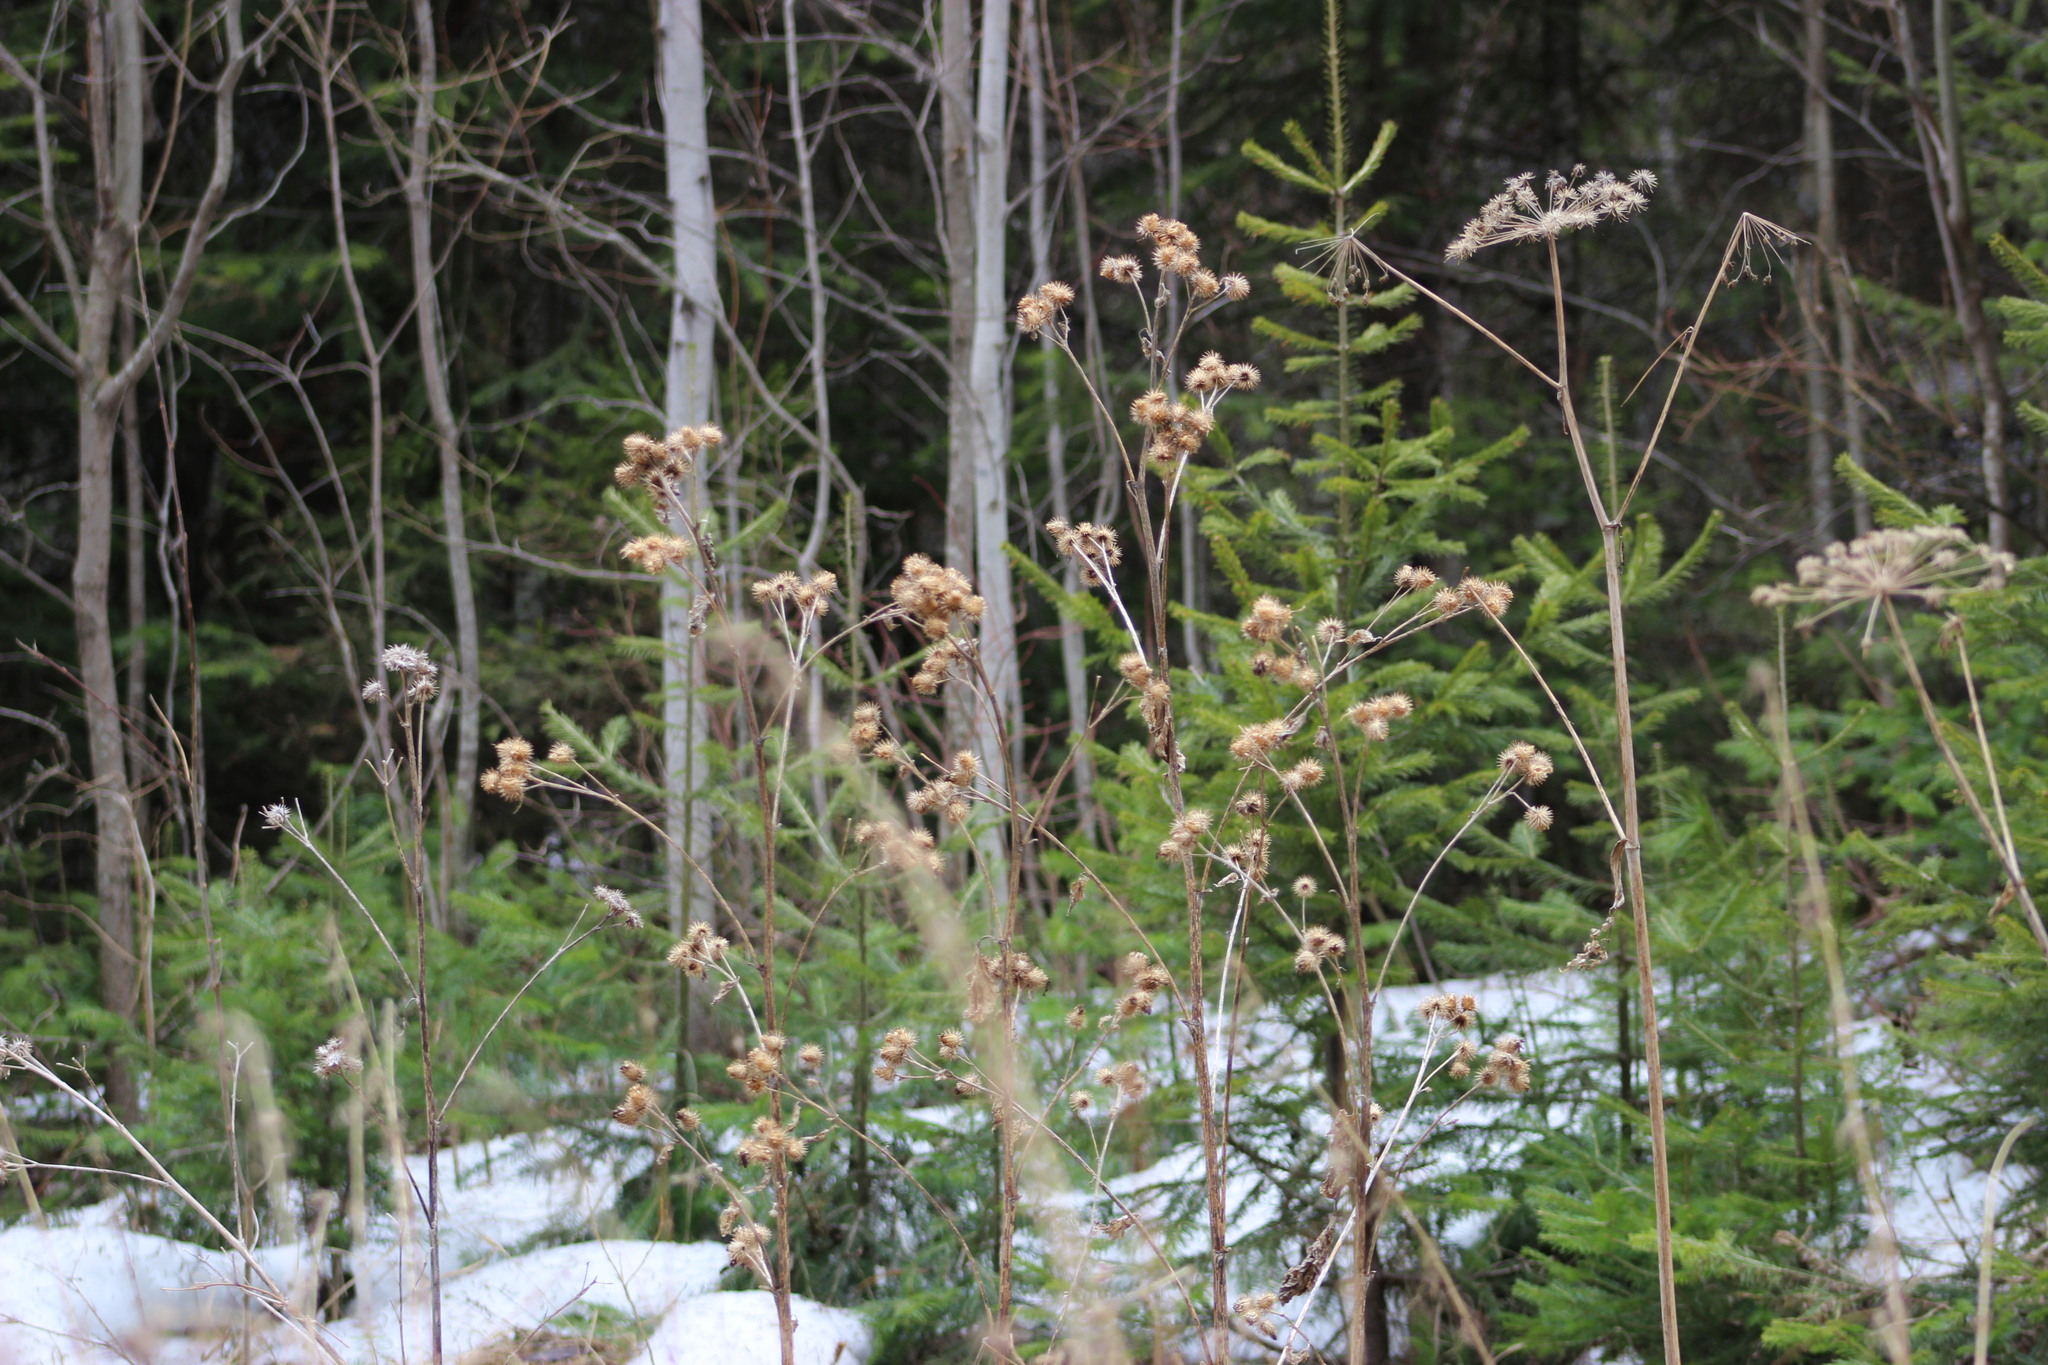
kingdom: Plantae
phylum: Tracheophyta
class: Magnoliopsida
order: Asterales
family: Asteraceae
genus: Arctium
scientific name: Arctium tomentosum
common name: Woolly burdock
